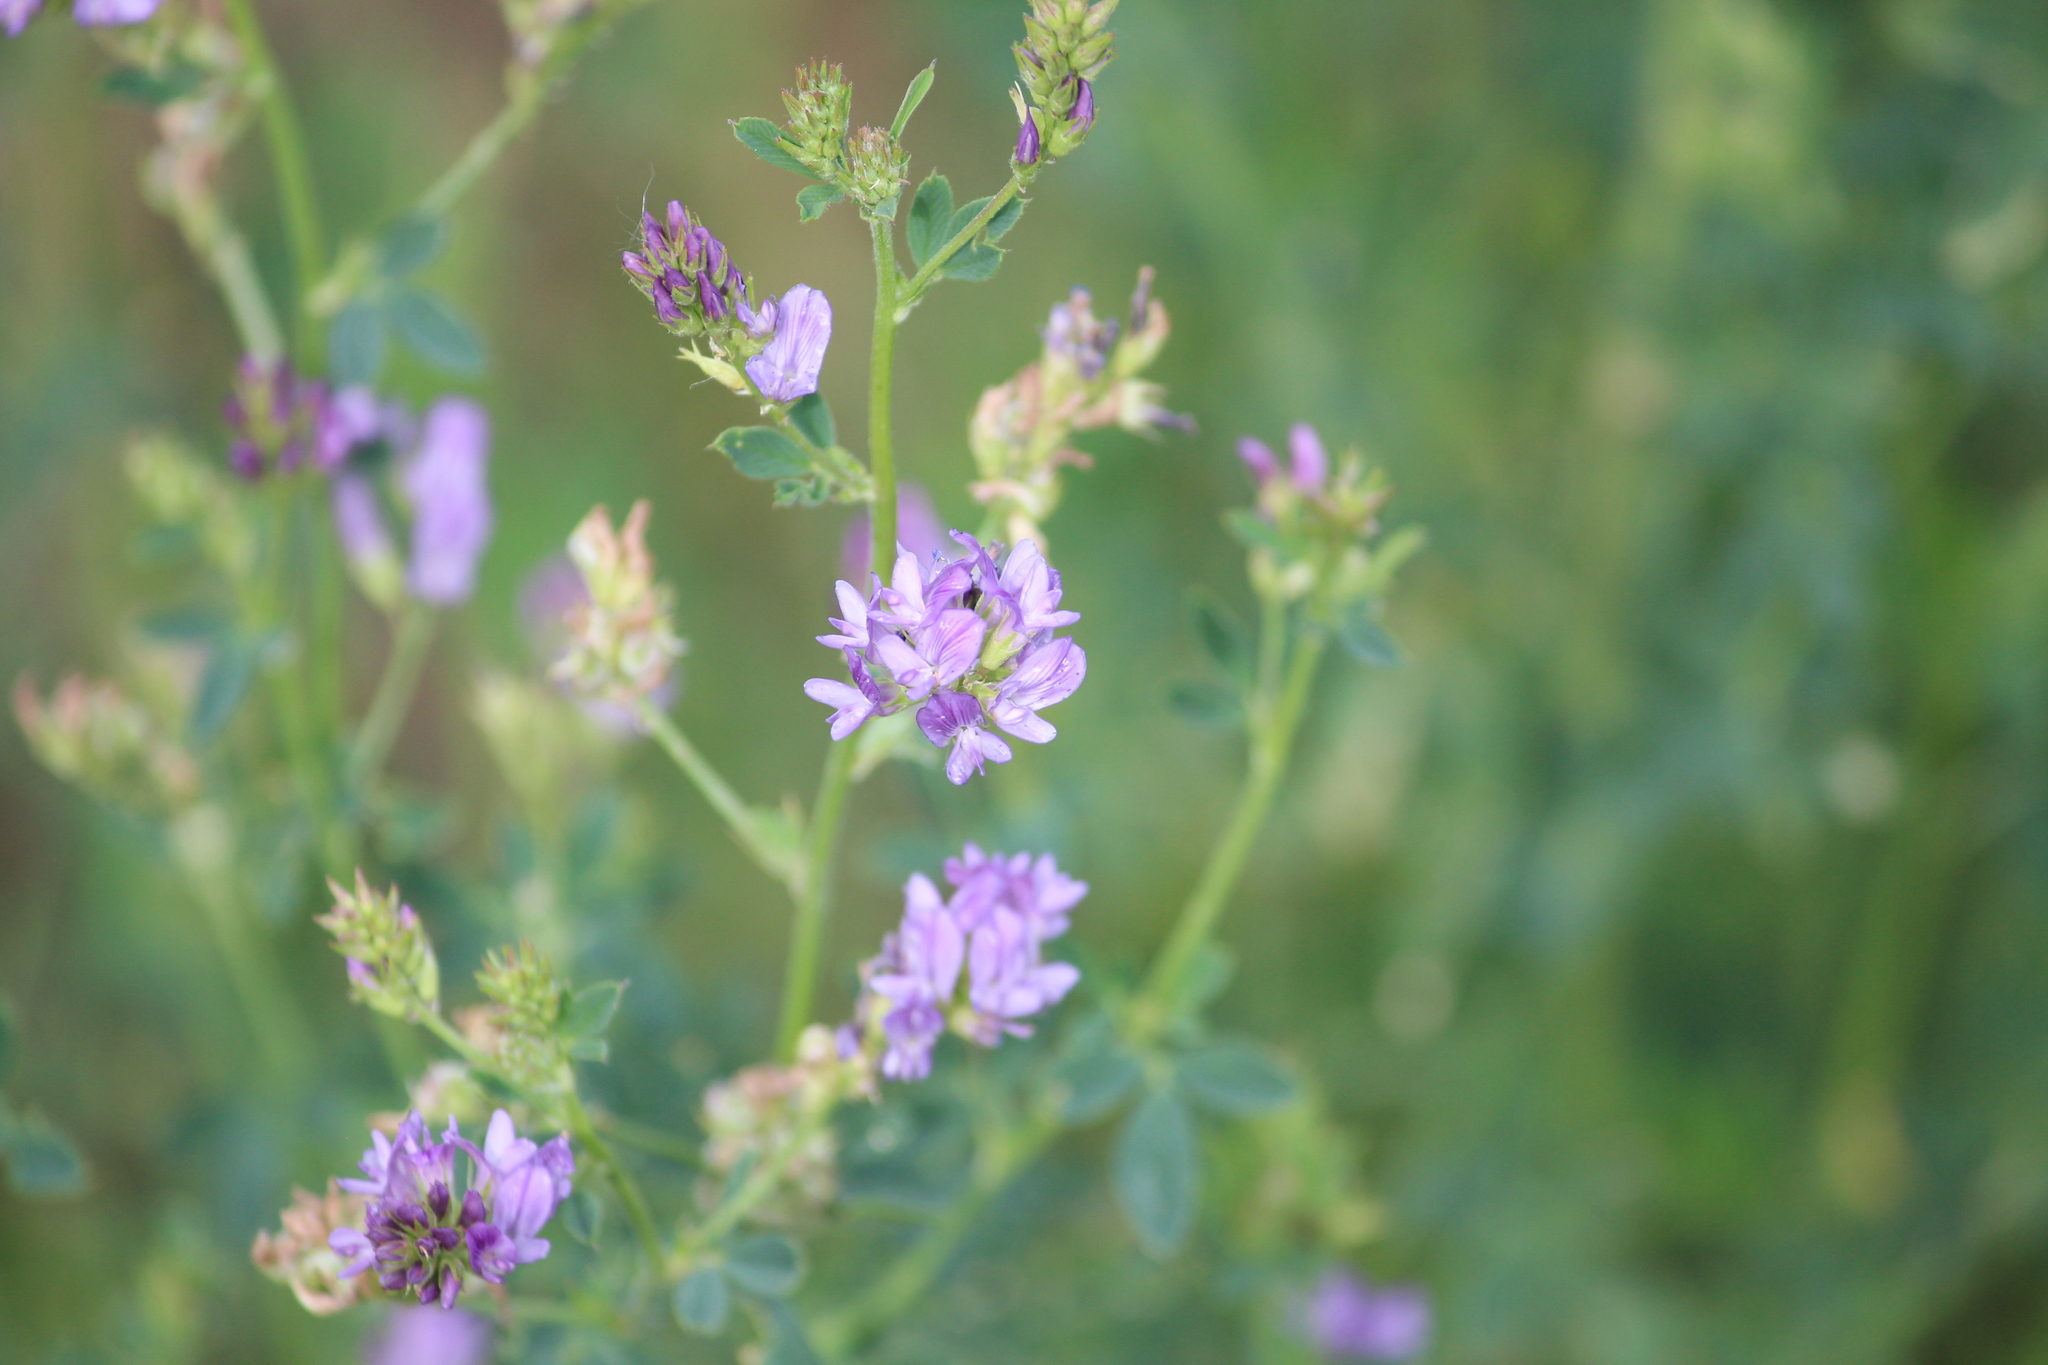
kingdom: Plantae
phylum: Tracheophyta
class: Magnoliopsida
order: Fabales
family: Fabaceae
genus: Medicago
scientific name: Medicago sativa
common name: Alfalfa
